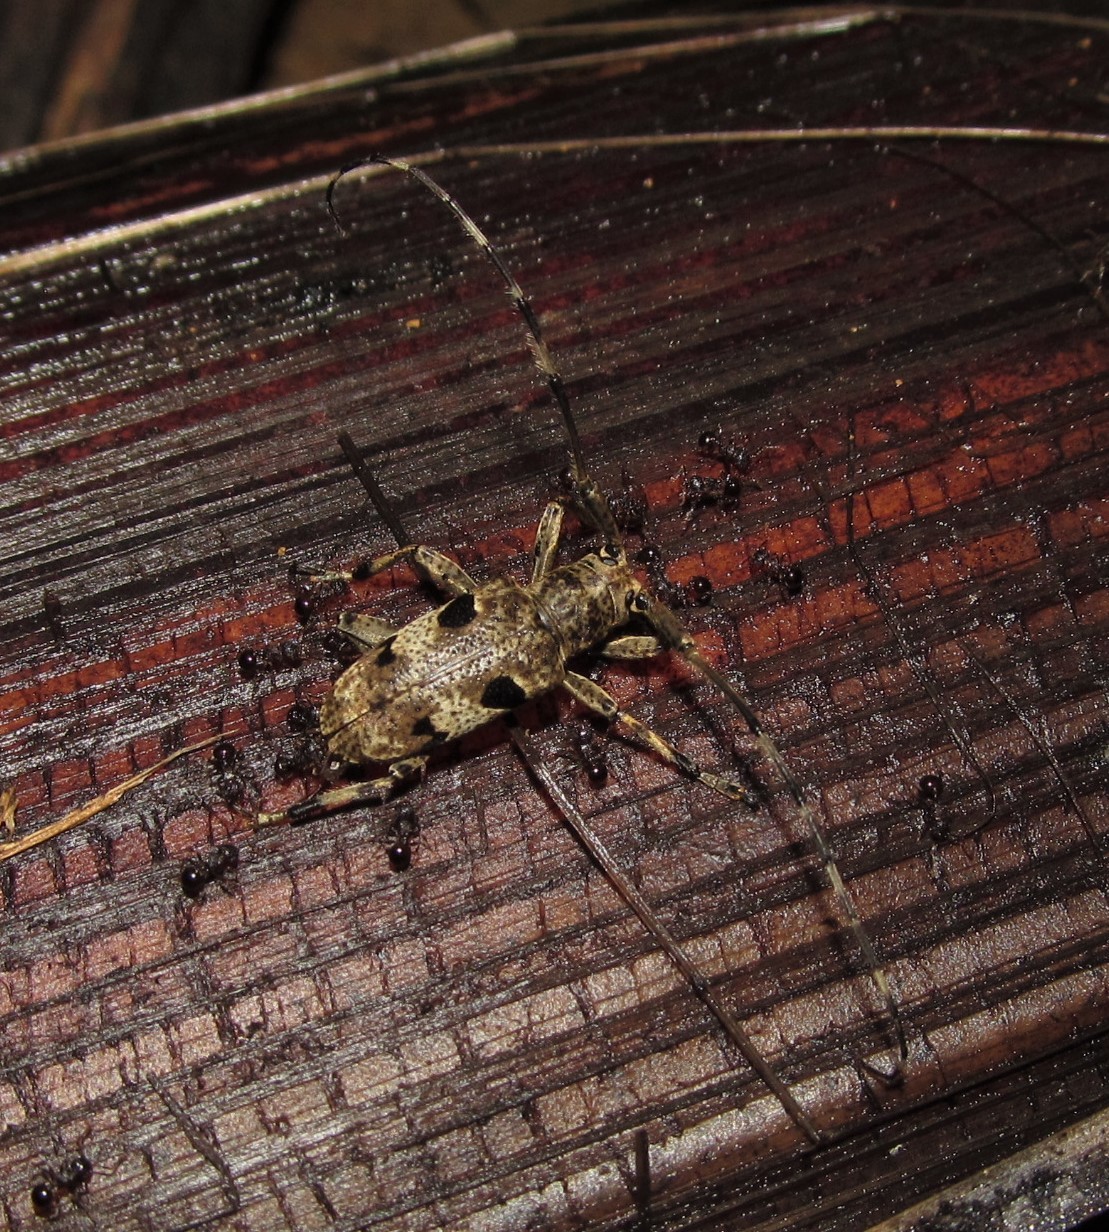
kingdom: Animalia
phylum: Arthropoda
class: Insecta
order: Coleoptera
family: Cerambycidae
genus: Mesosa
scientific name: Mesosa undata
